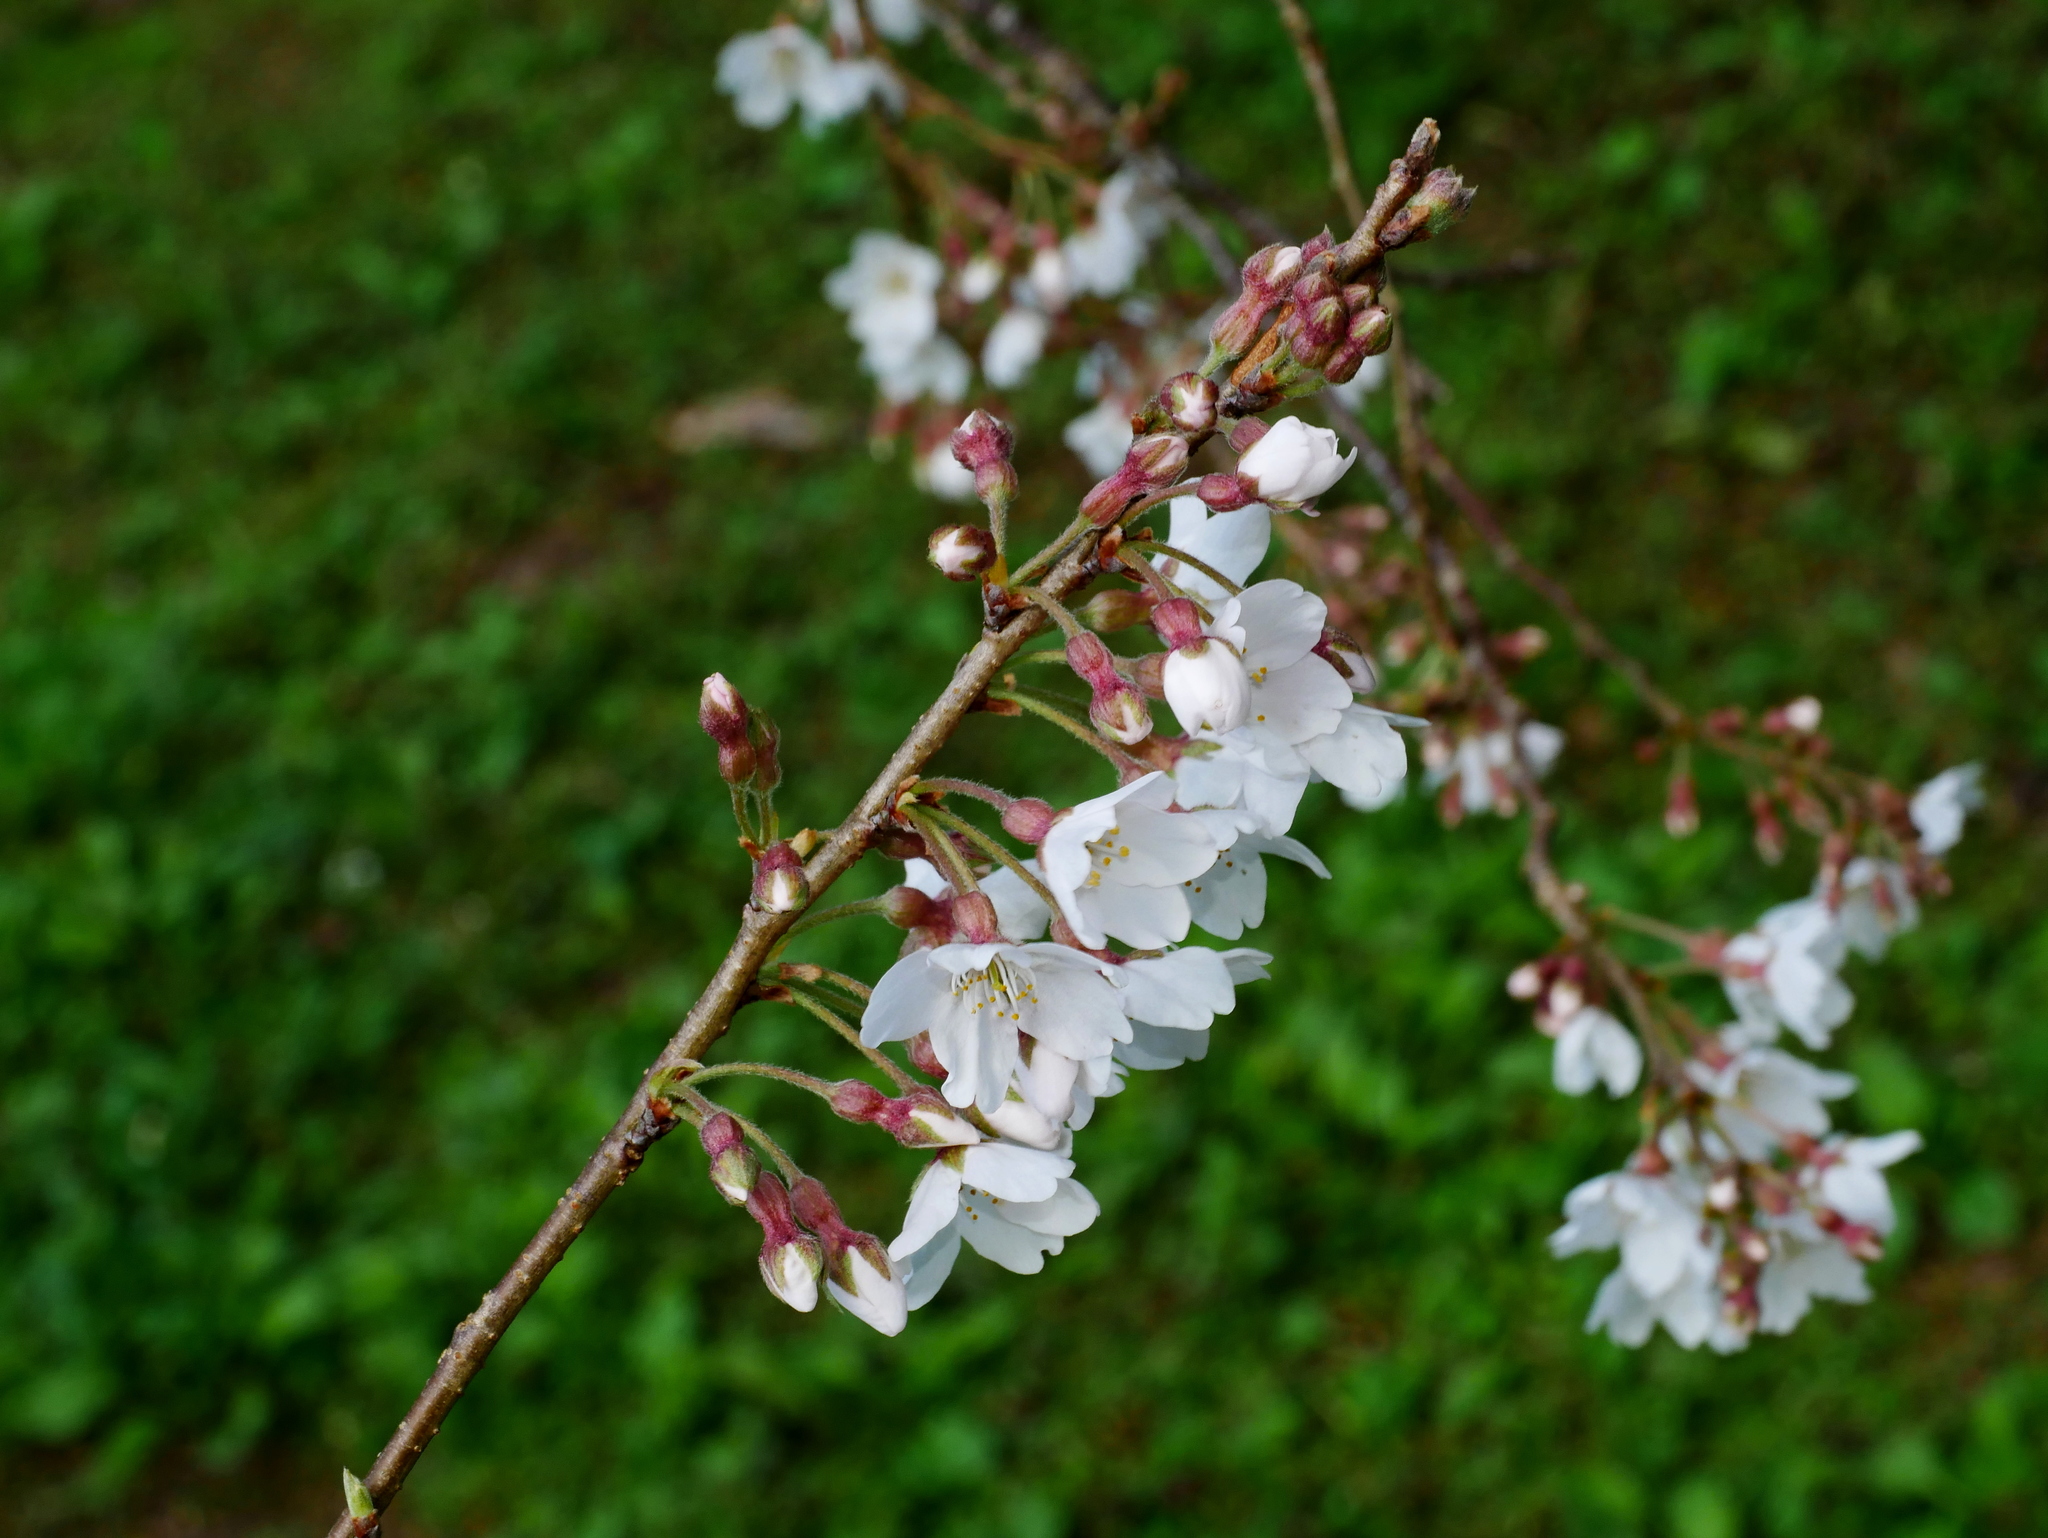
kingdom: Plantae
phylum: Tracheophyta
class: Magnoliopsida
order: Rosales
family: Rosaceae
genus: Prunus
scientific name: Prunus itosakura
